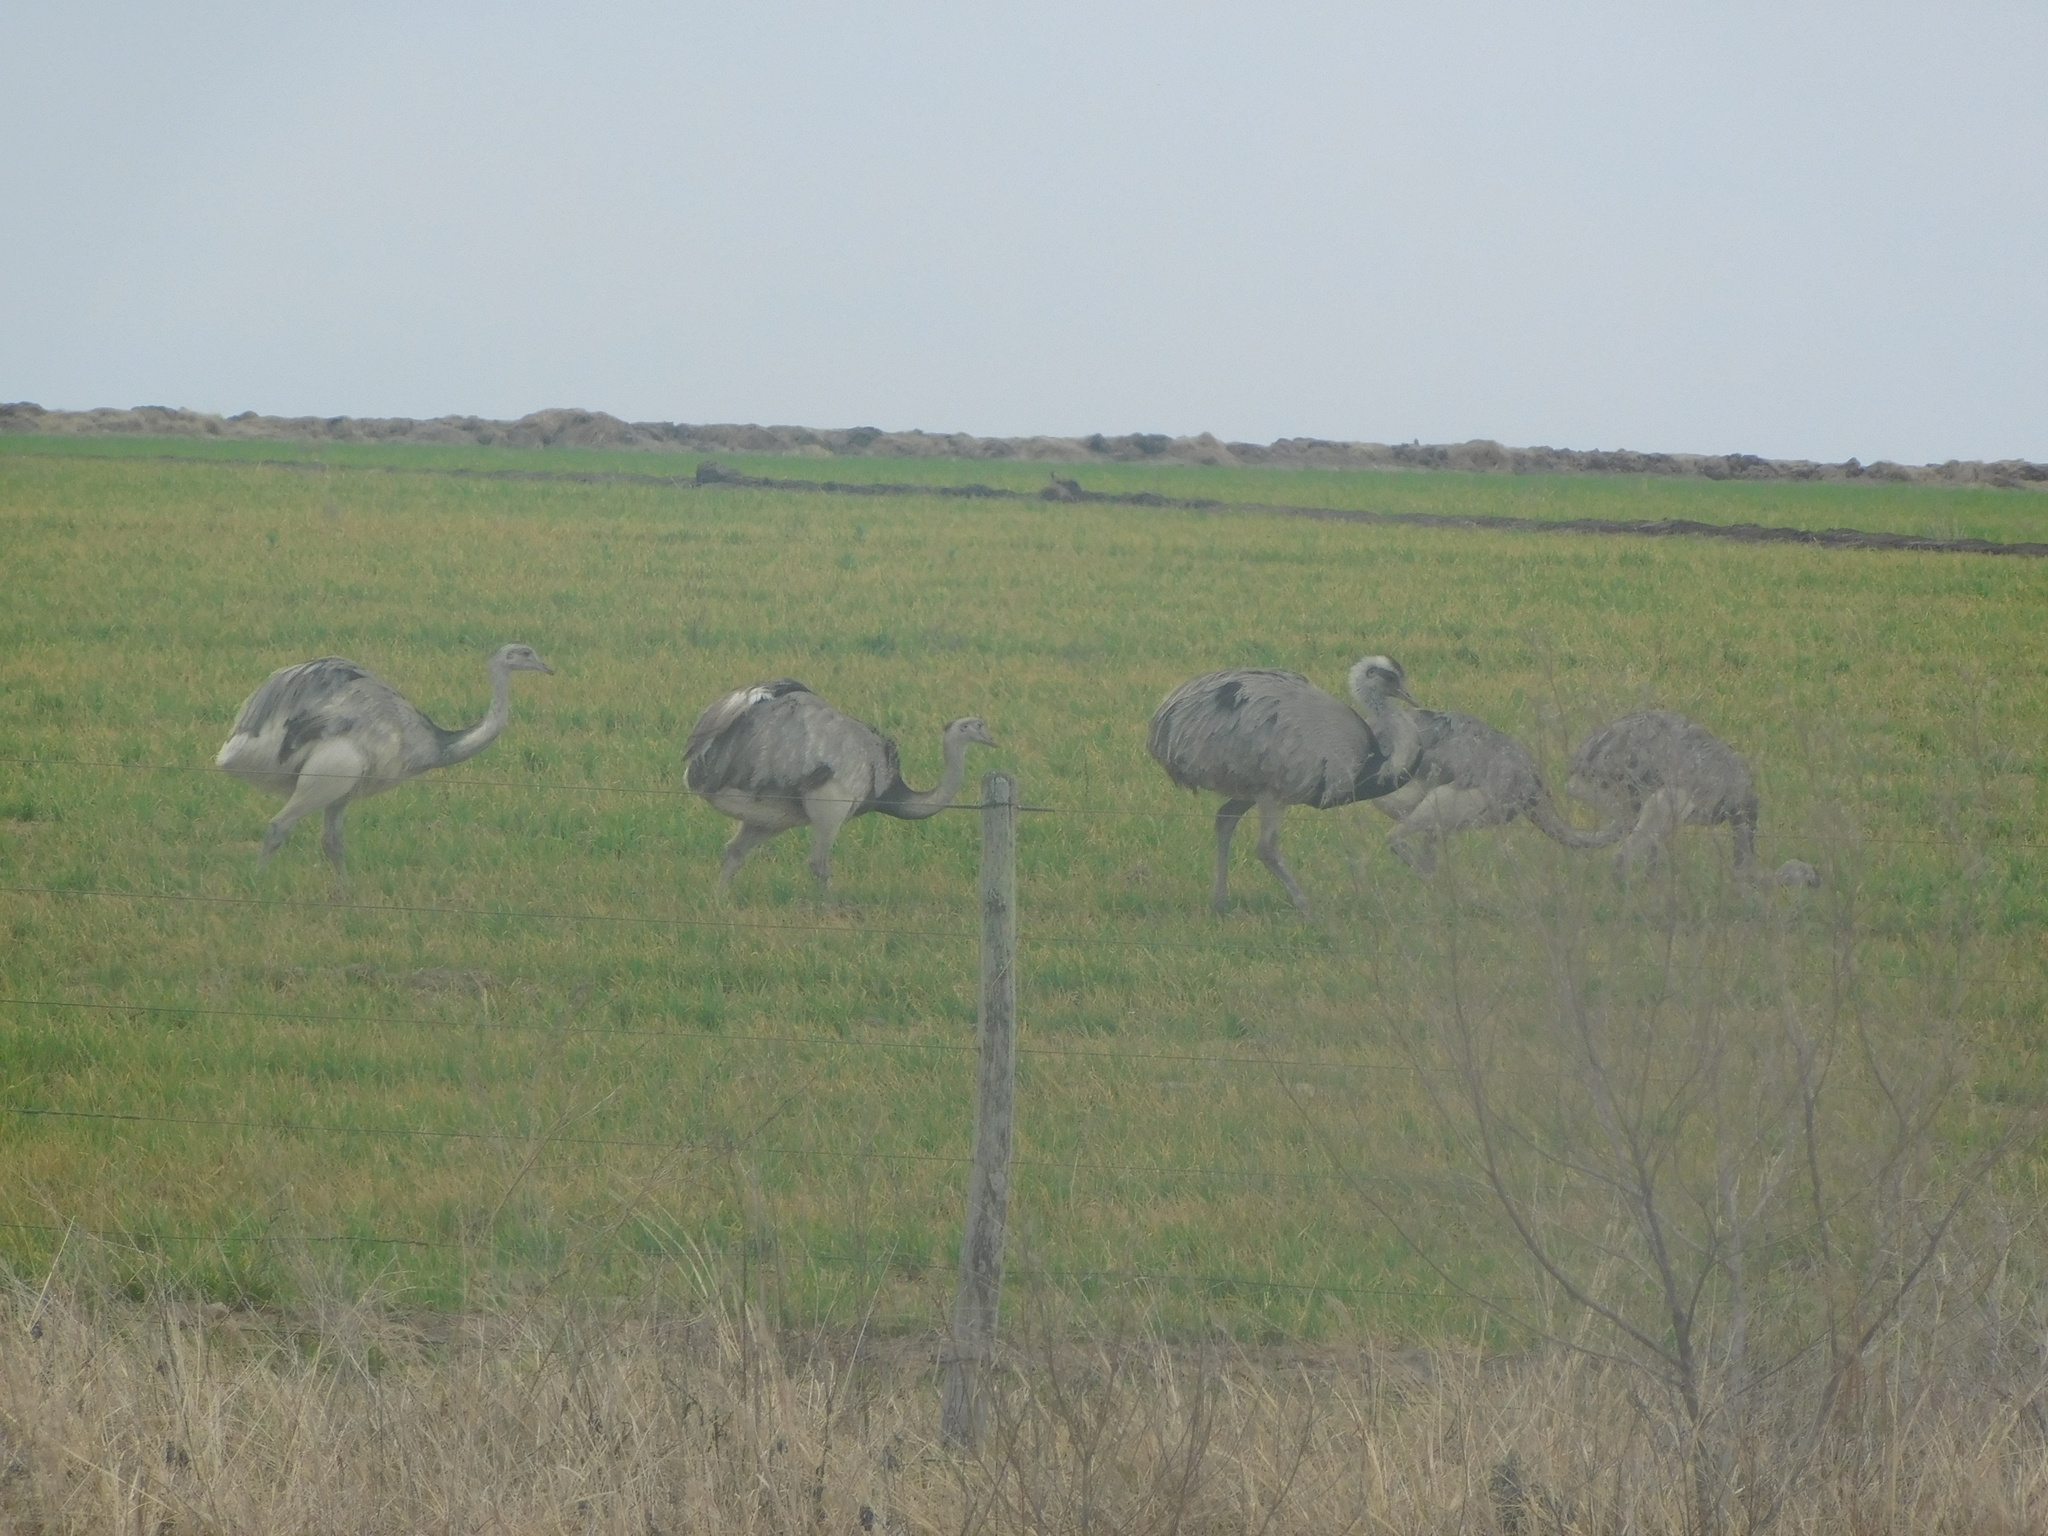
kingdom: Animalia
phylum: Chordata
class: Aves
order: Rheiformes
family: Rheidae
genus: Rhea
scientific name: Rhea americana
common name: Greater rhea
